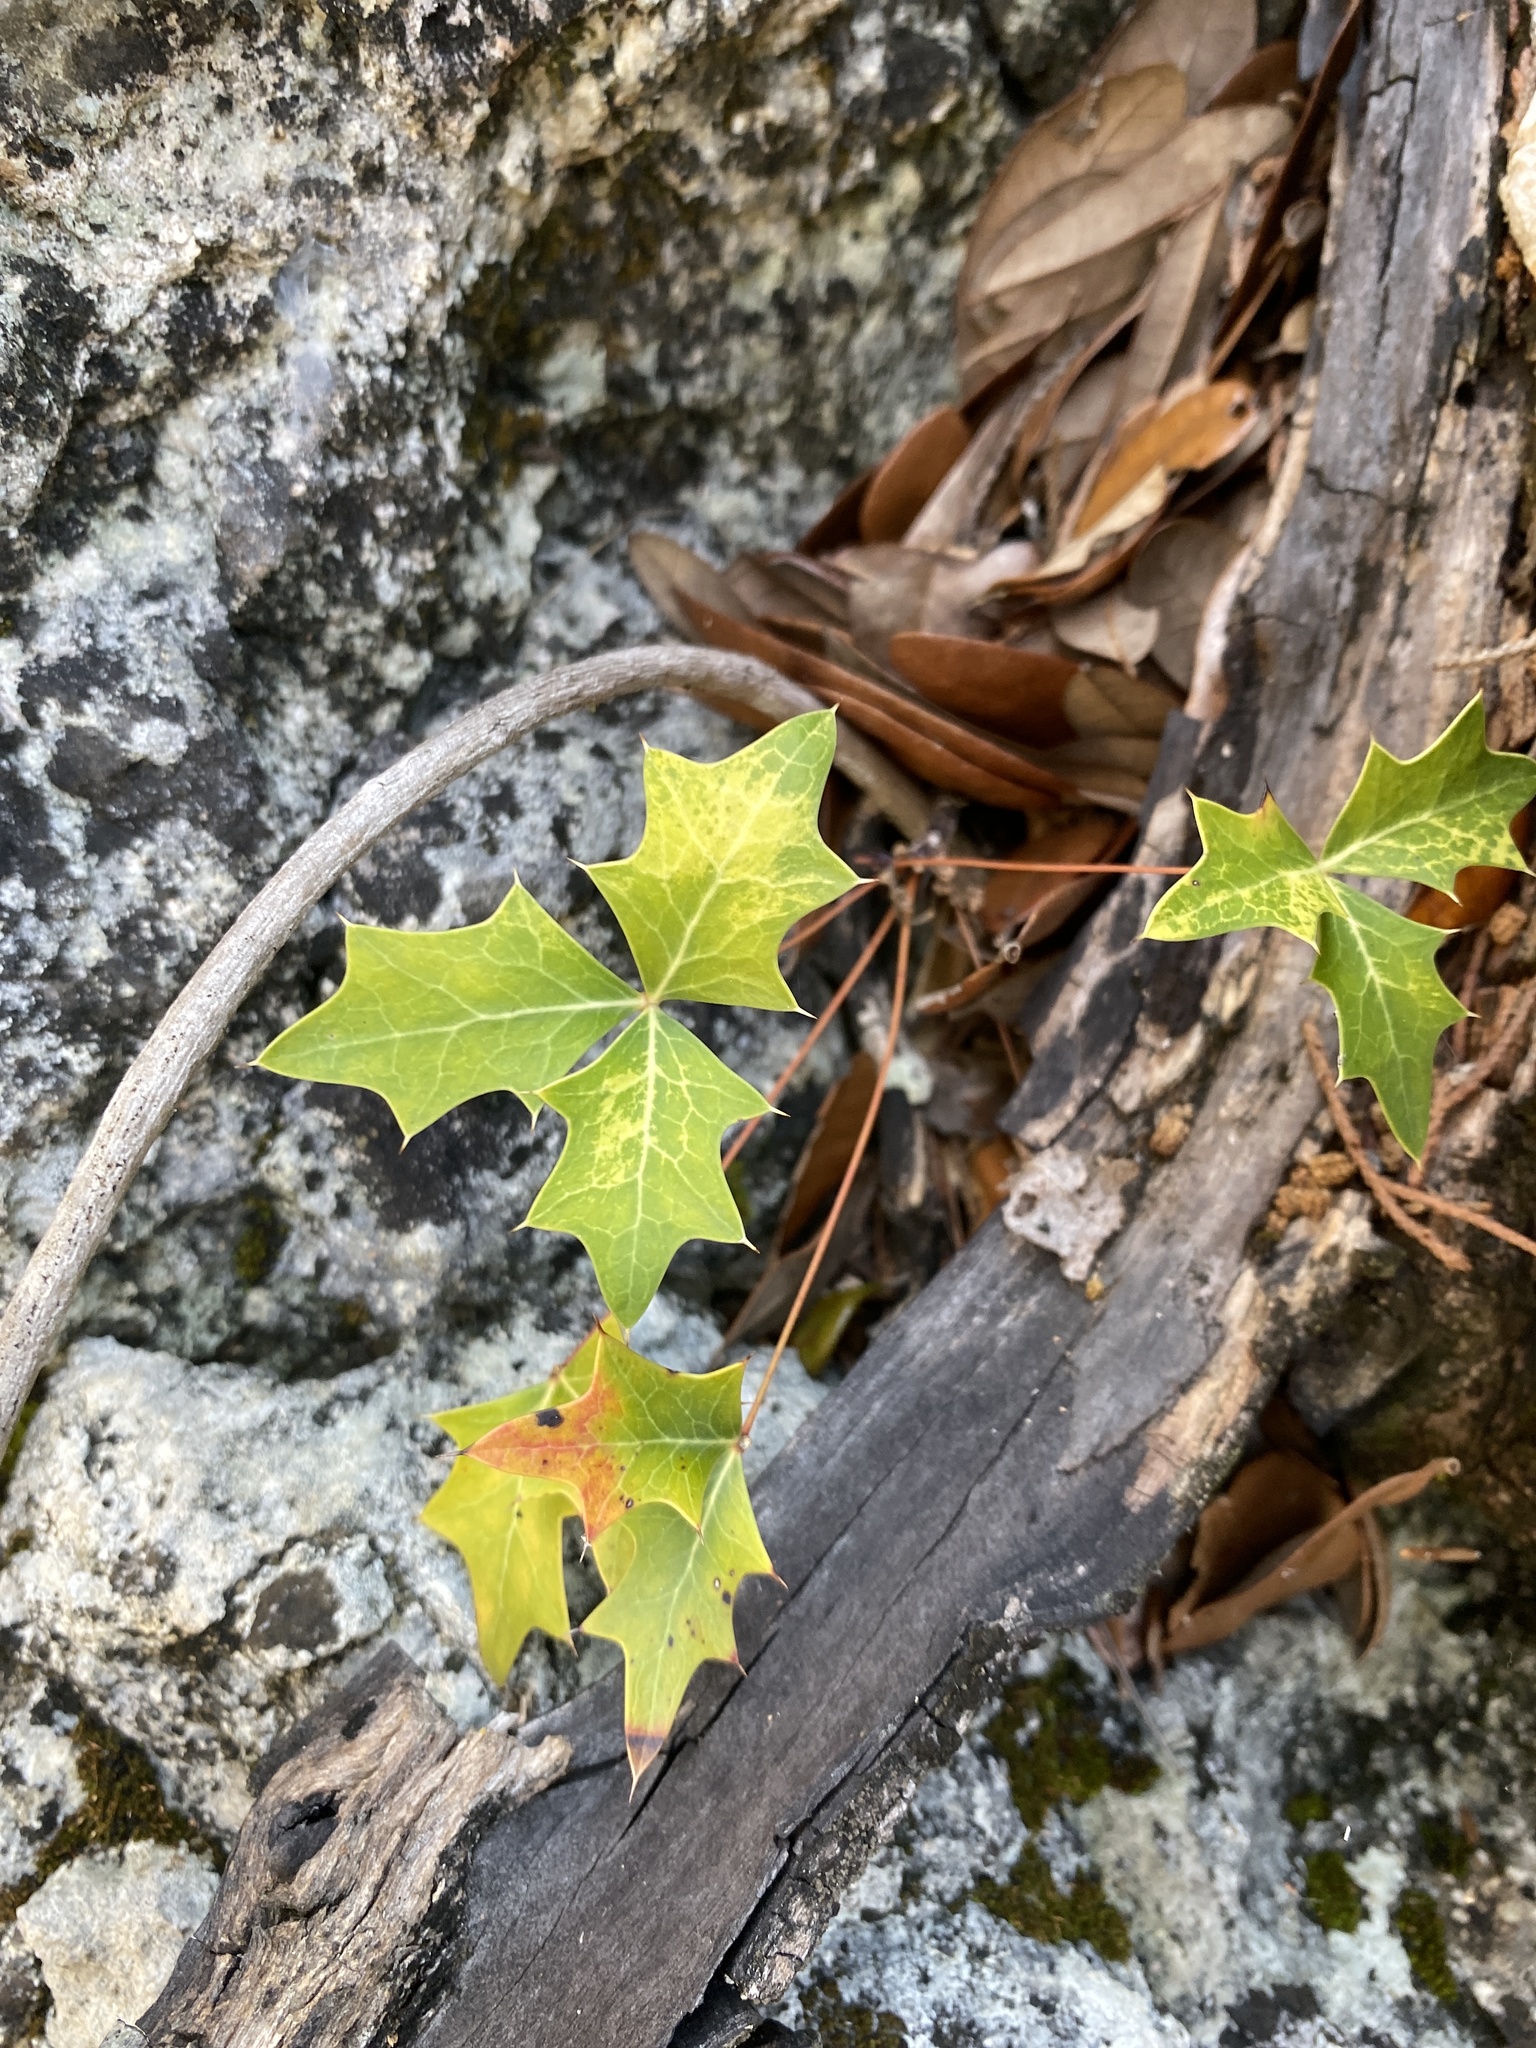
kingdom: Plantae
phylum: Tracheophyta
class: Magnoliopsida
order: Ranunculales
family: Berberidaceae
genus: Alloberberis
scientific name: Alloberberis trifoliolata
